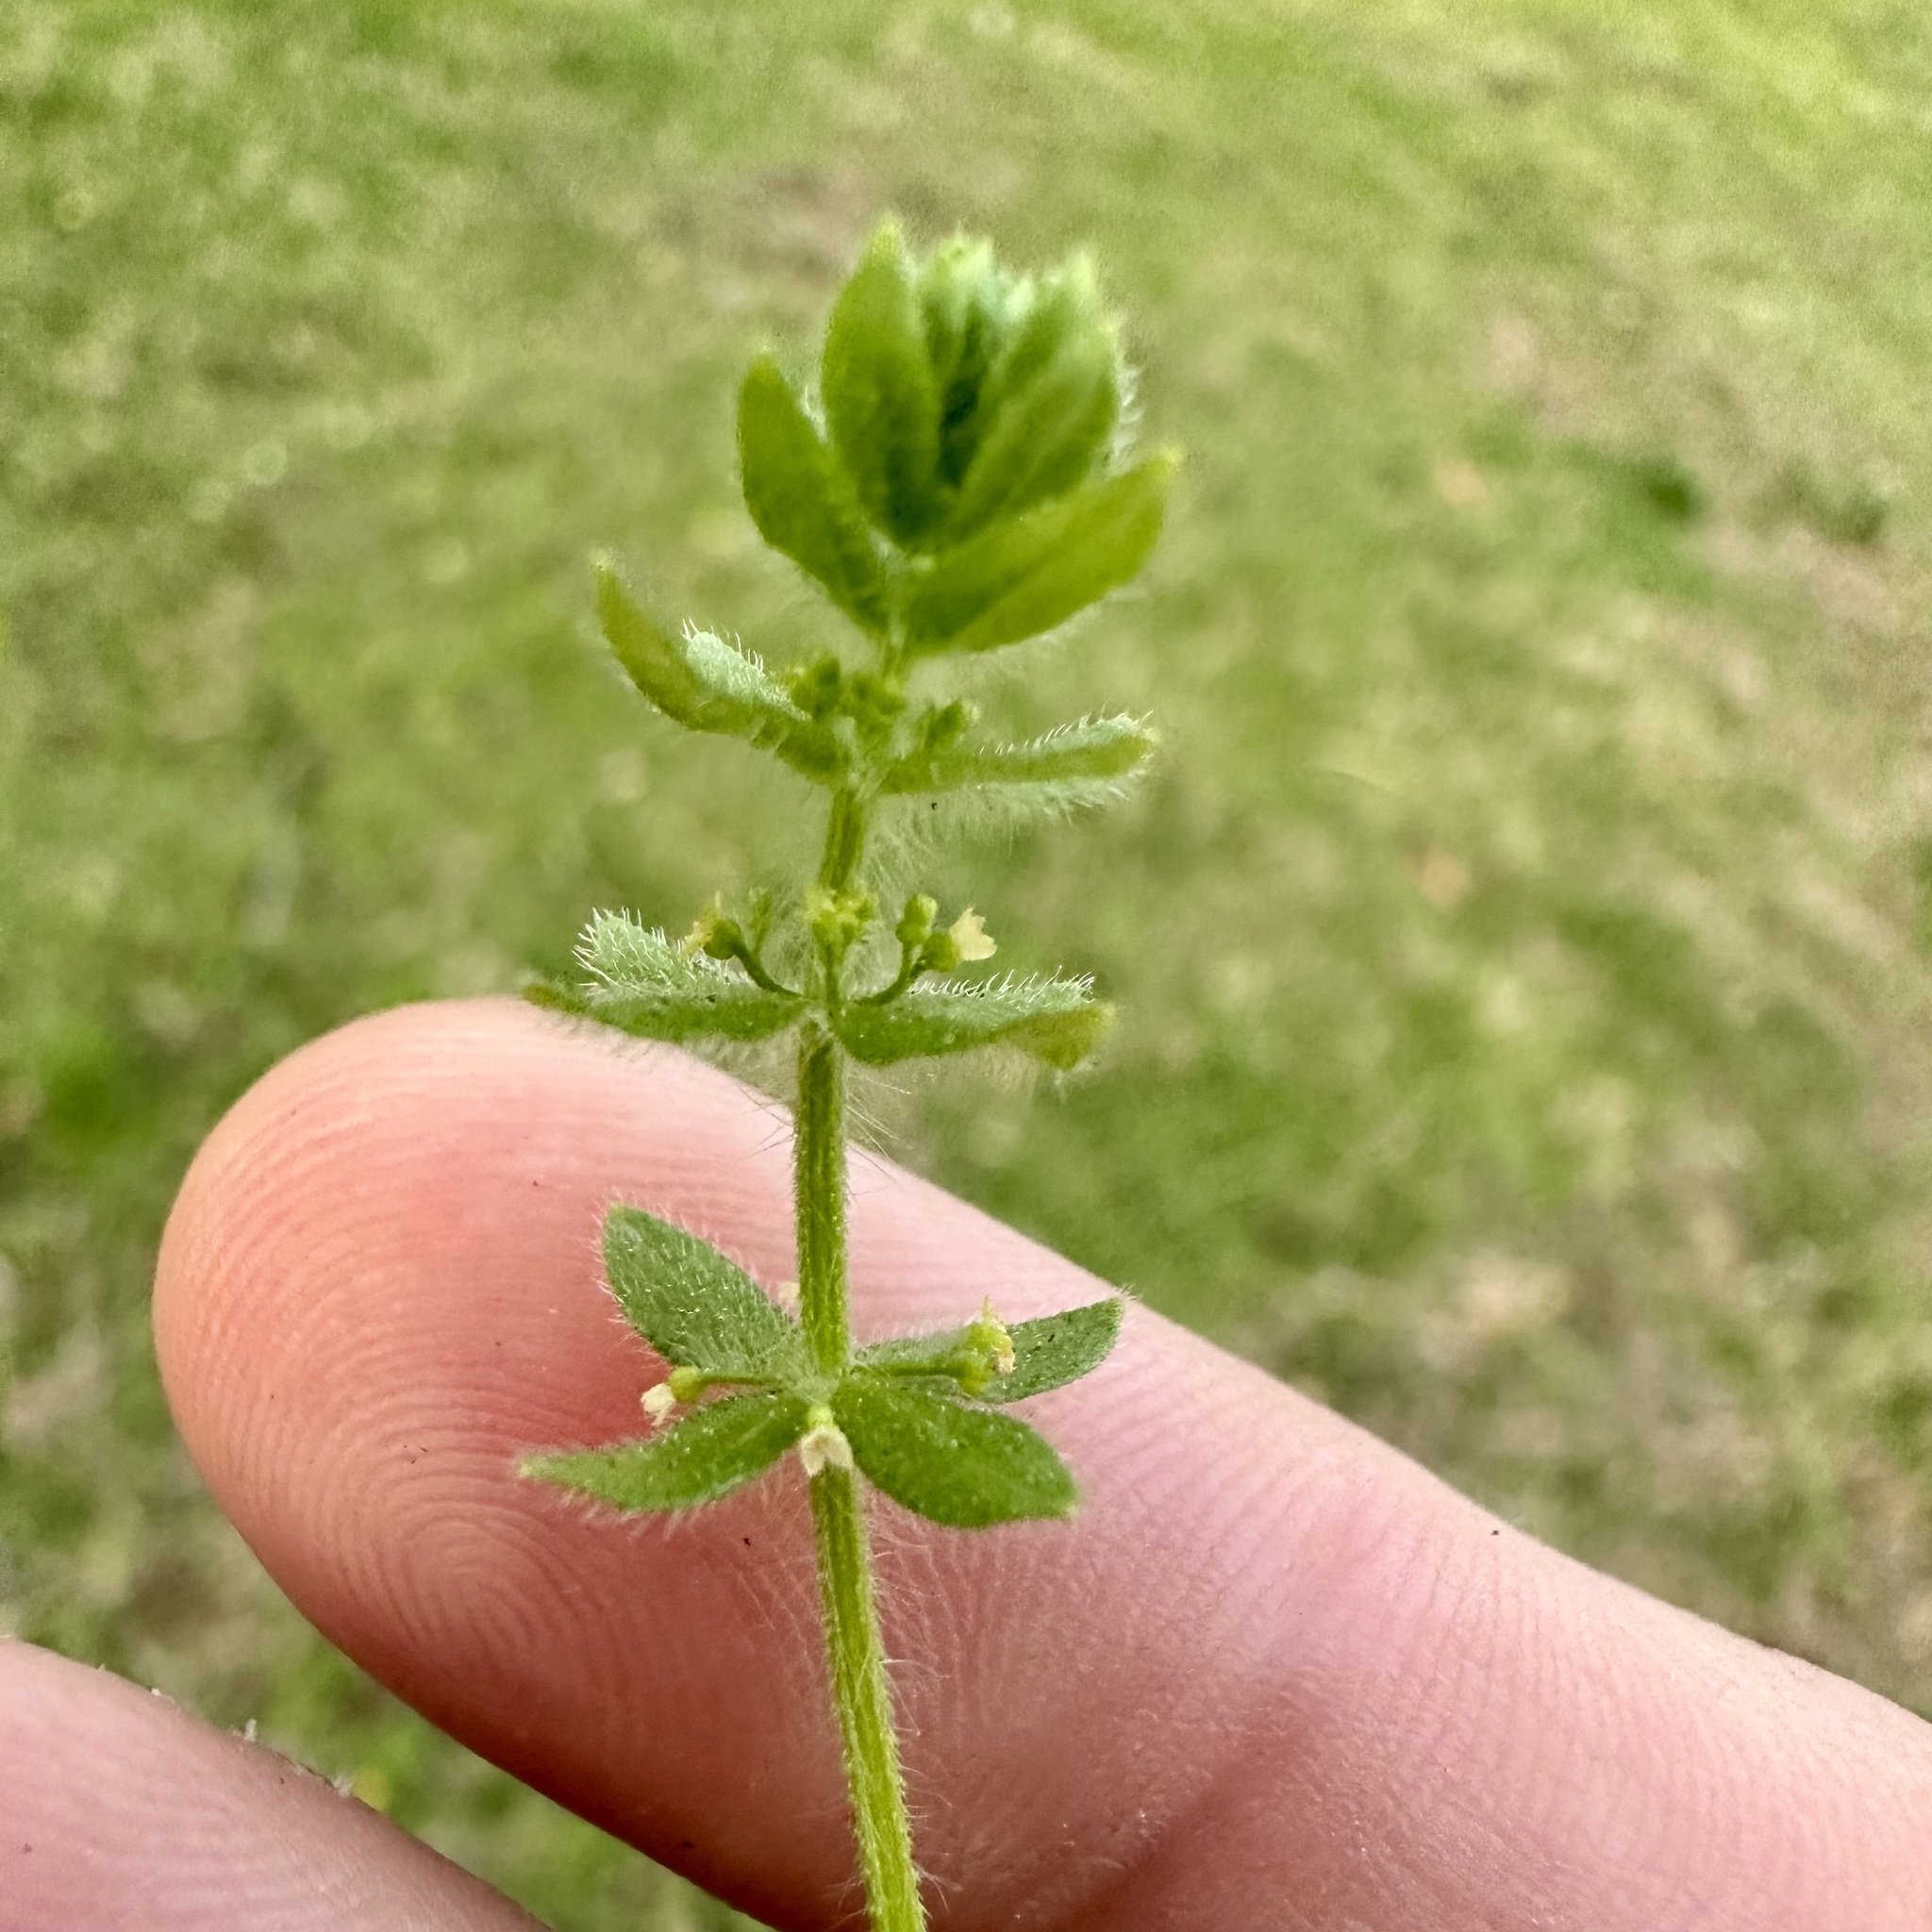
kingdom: Plantae
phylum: Tracheophyta
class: Magnoliopsida
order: Gentianales
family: Rubiaceae
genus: Cruciata
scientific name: Cruciata pedemontana
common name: Piedmont bedstraw
